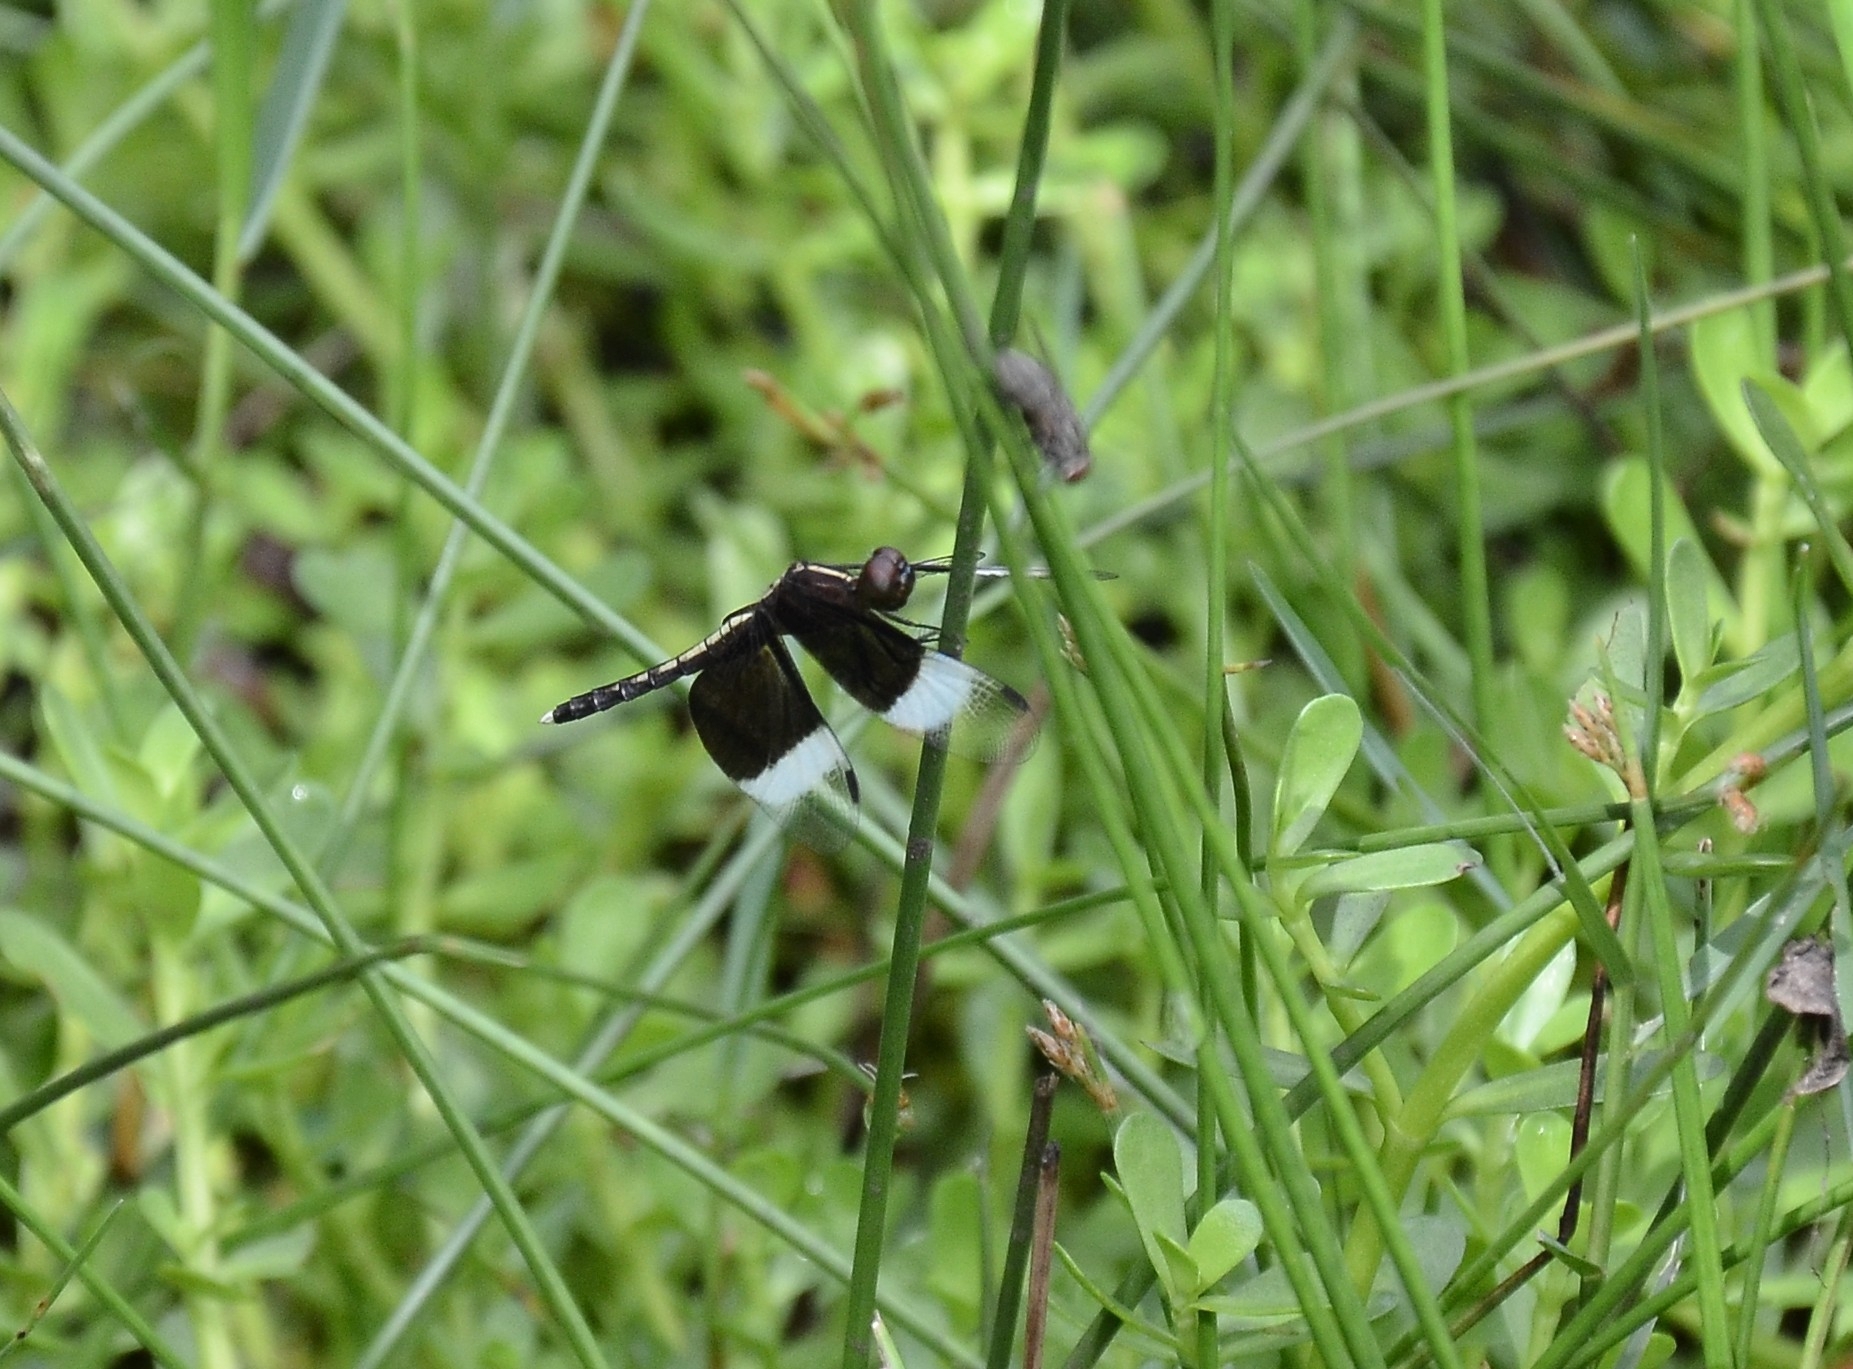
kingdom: Animalia
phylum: Arthropoda
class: Insecta
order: Odonata
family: Libellulidae
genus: Neurothemis
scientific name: Neurothemis tullia
